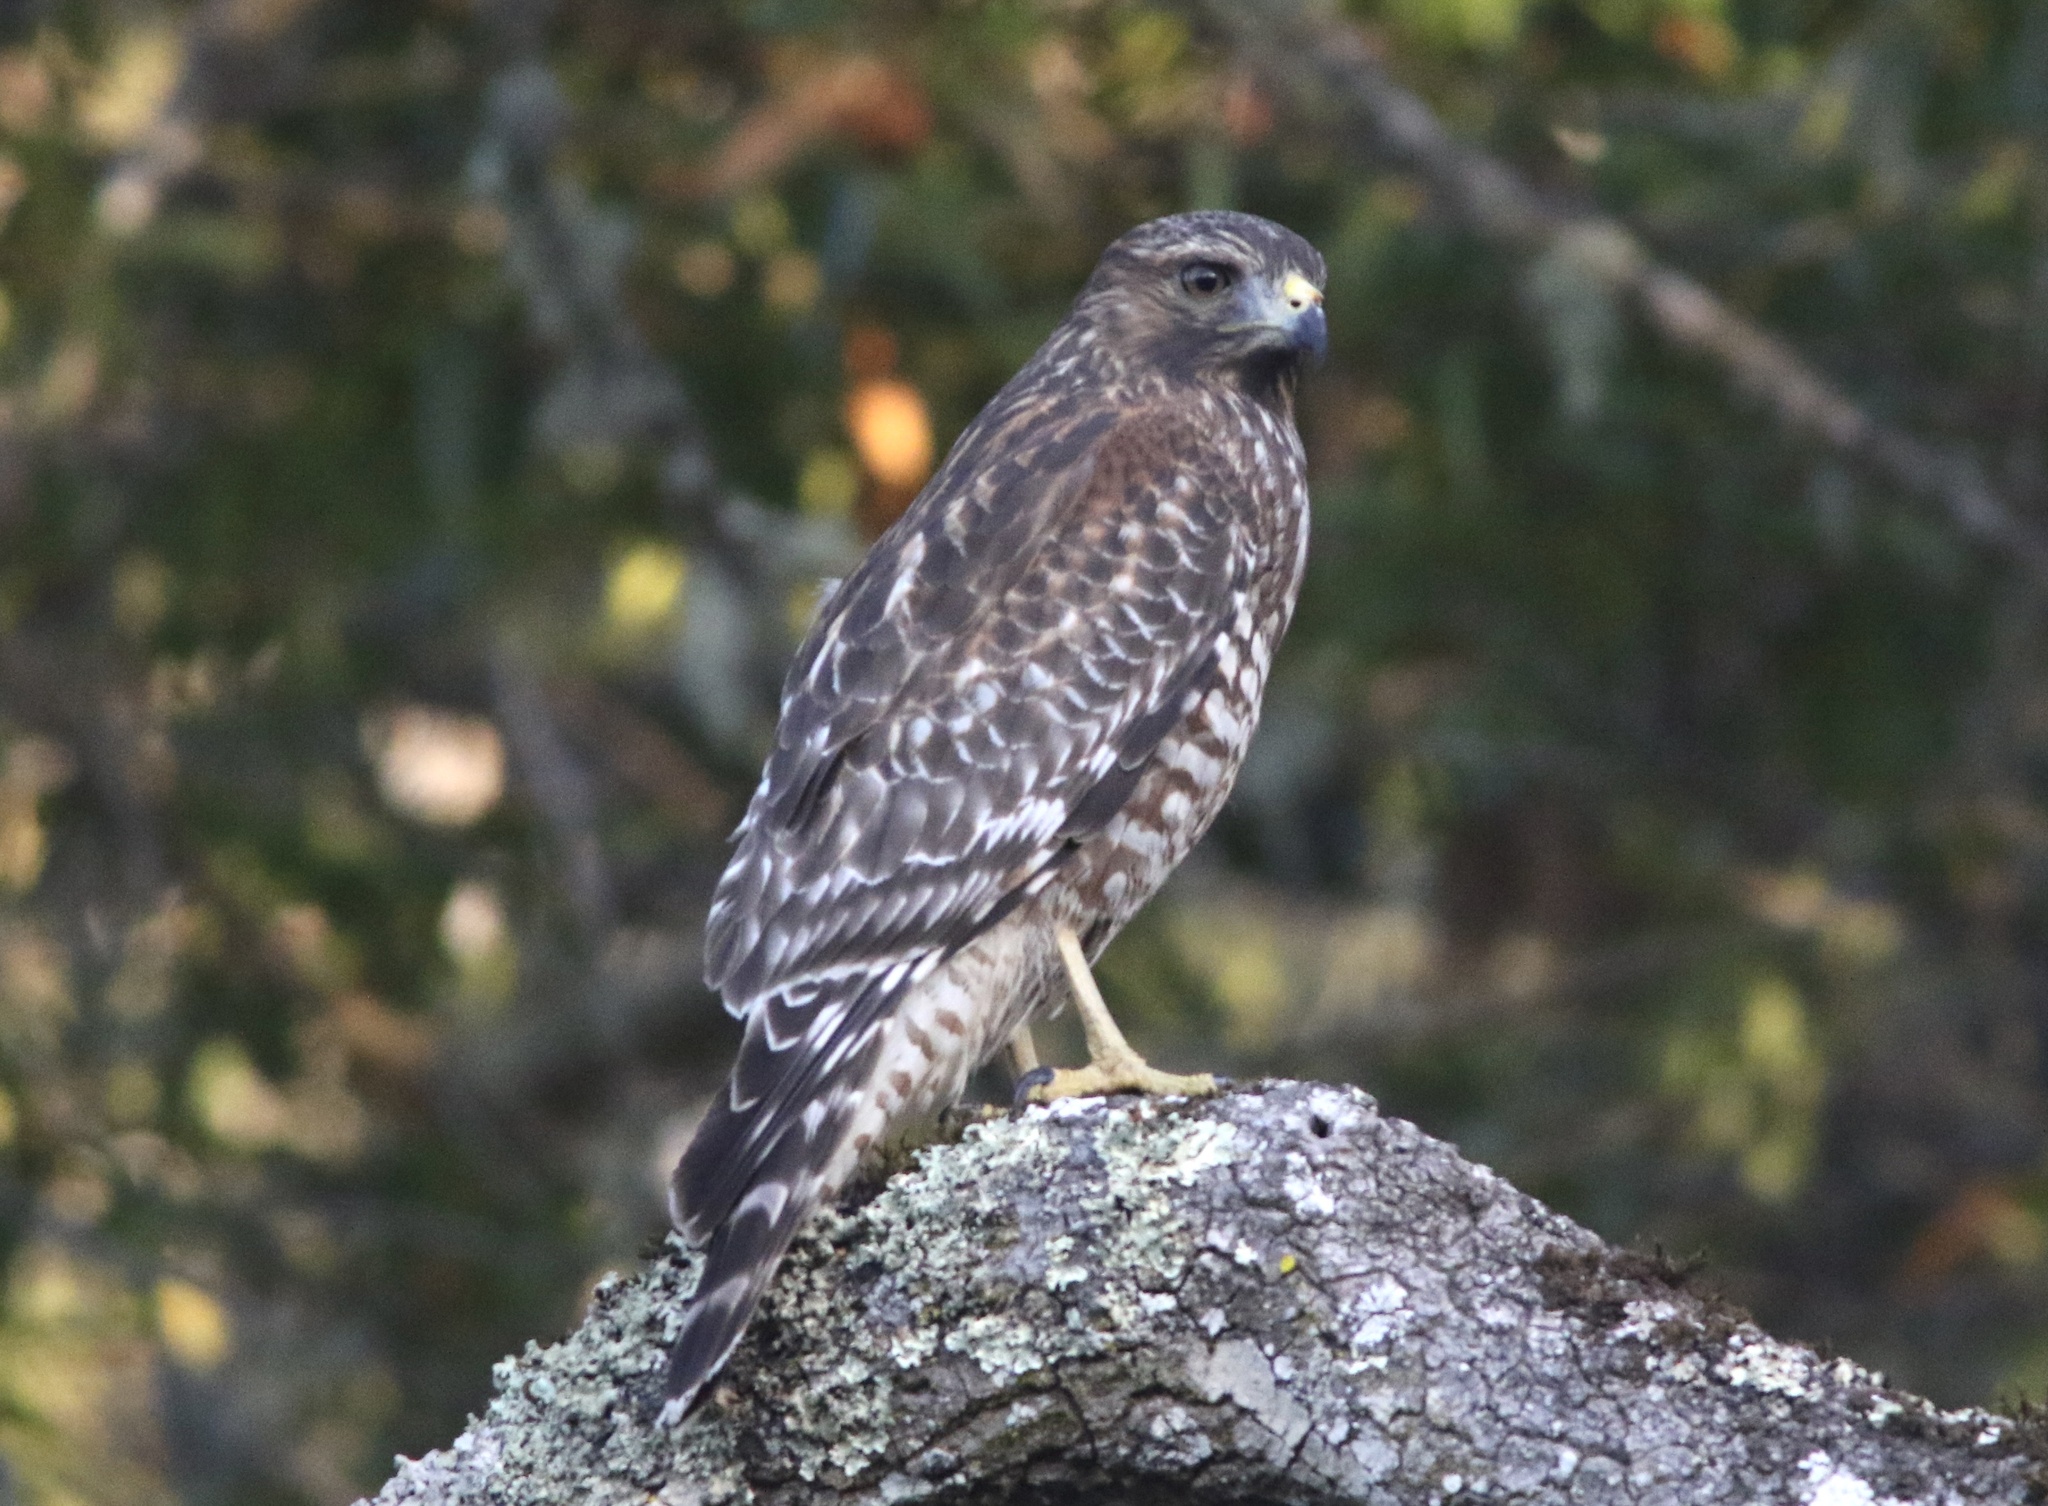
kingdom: Animalia
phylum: Chordata
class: Aves
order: Accipitriformes
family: Accipitridae
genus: Buteo
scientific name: Buteo lineatus
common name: Red-shouldered hawk
